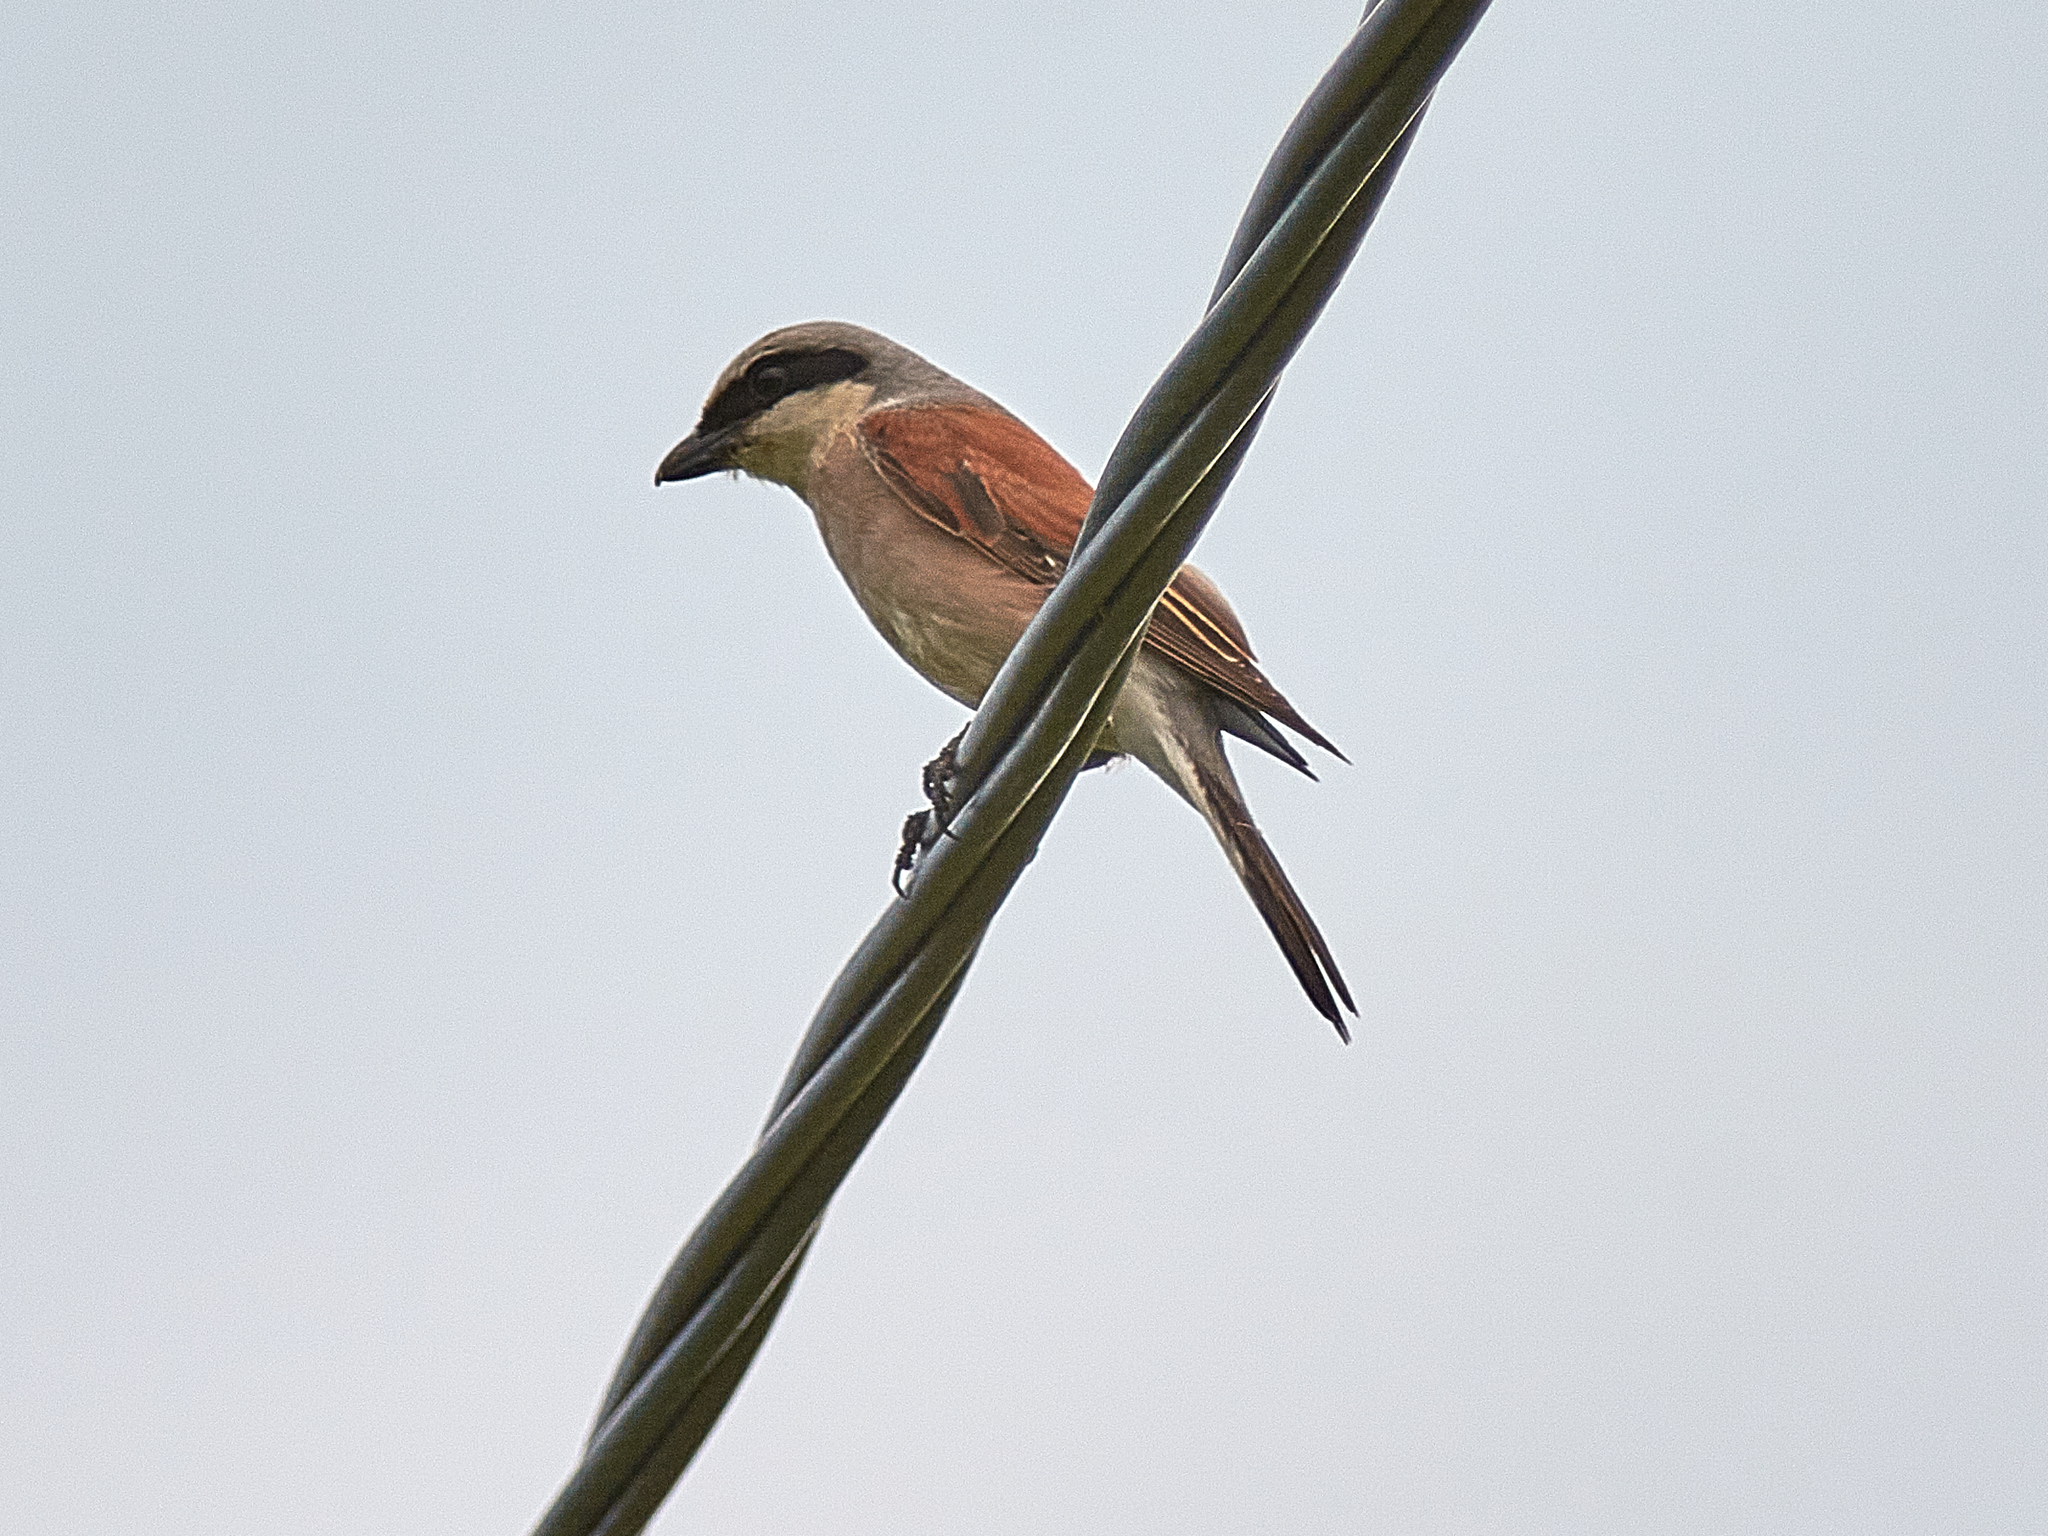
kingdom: Animalia
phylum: Chordata
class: Aves
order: Passeriformes
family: Laniidae
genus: Lanius
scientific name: Lanius collurio
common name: Red-backed shrike
